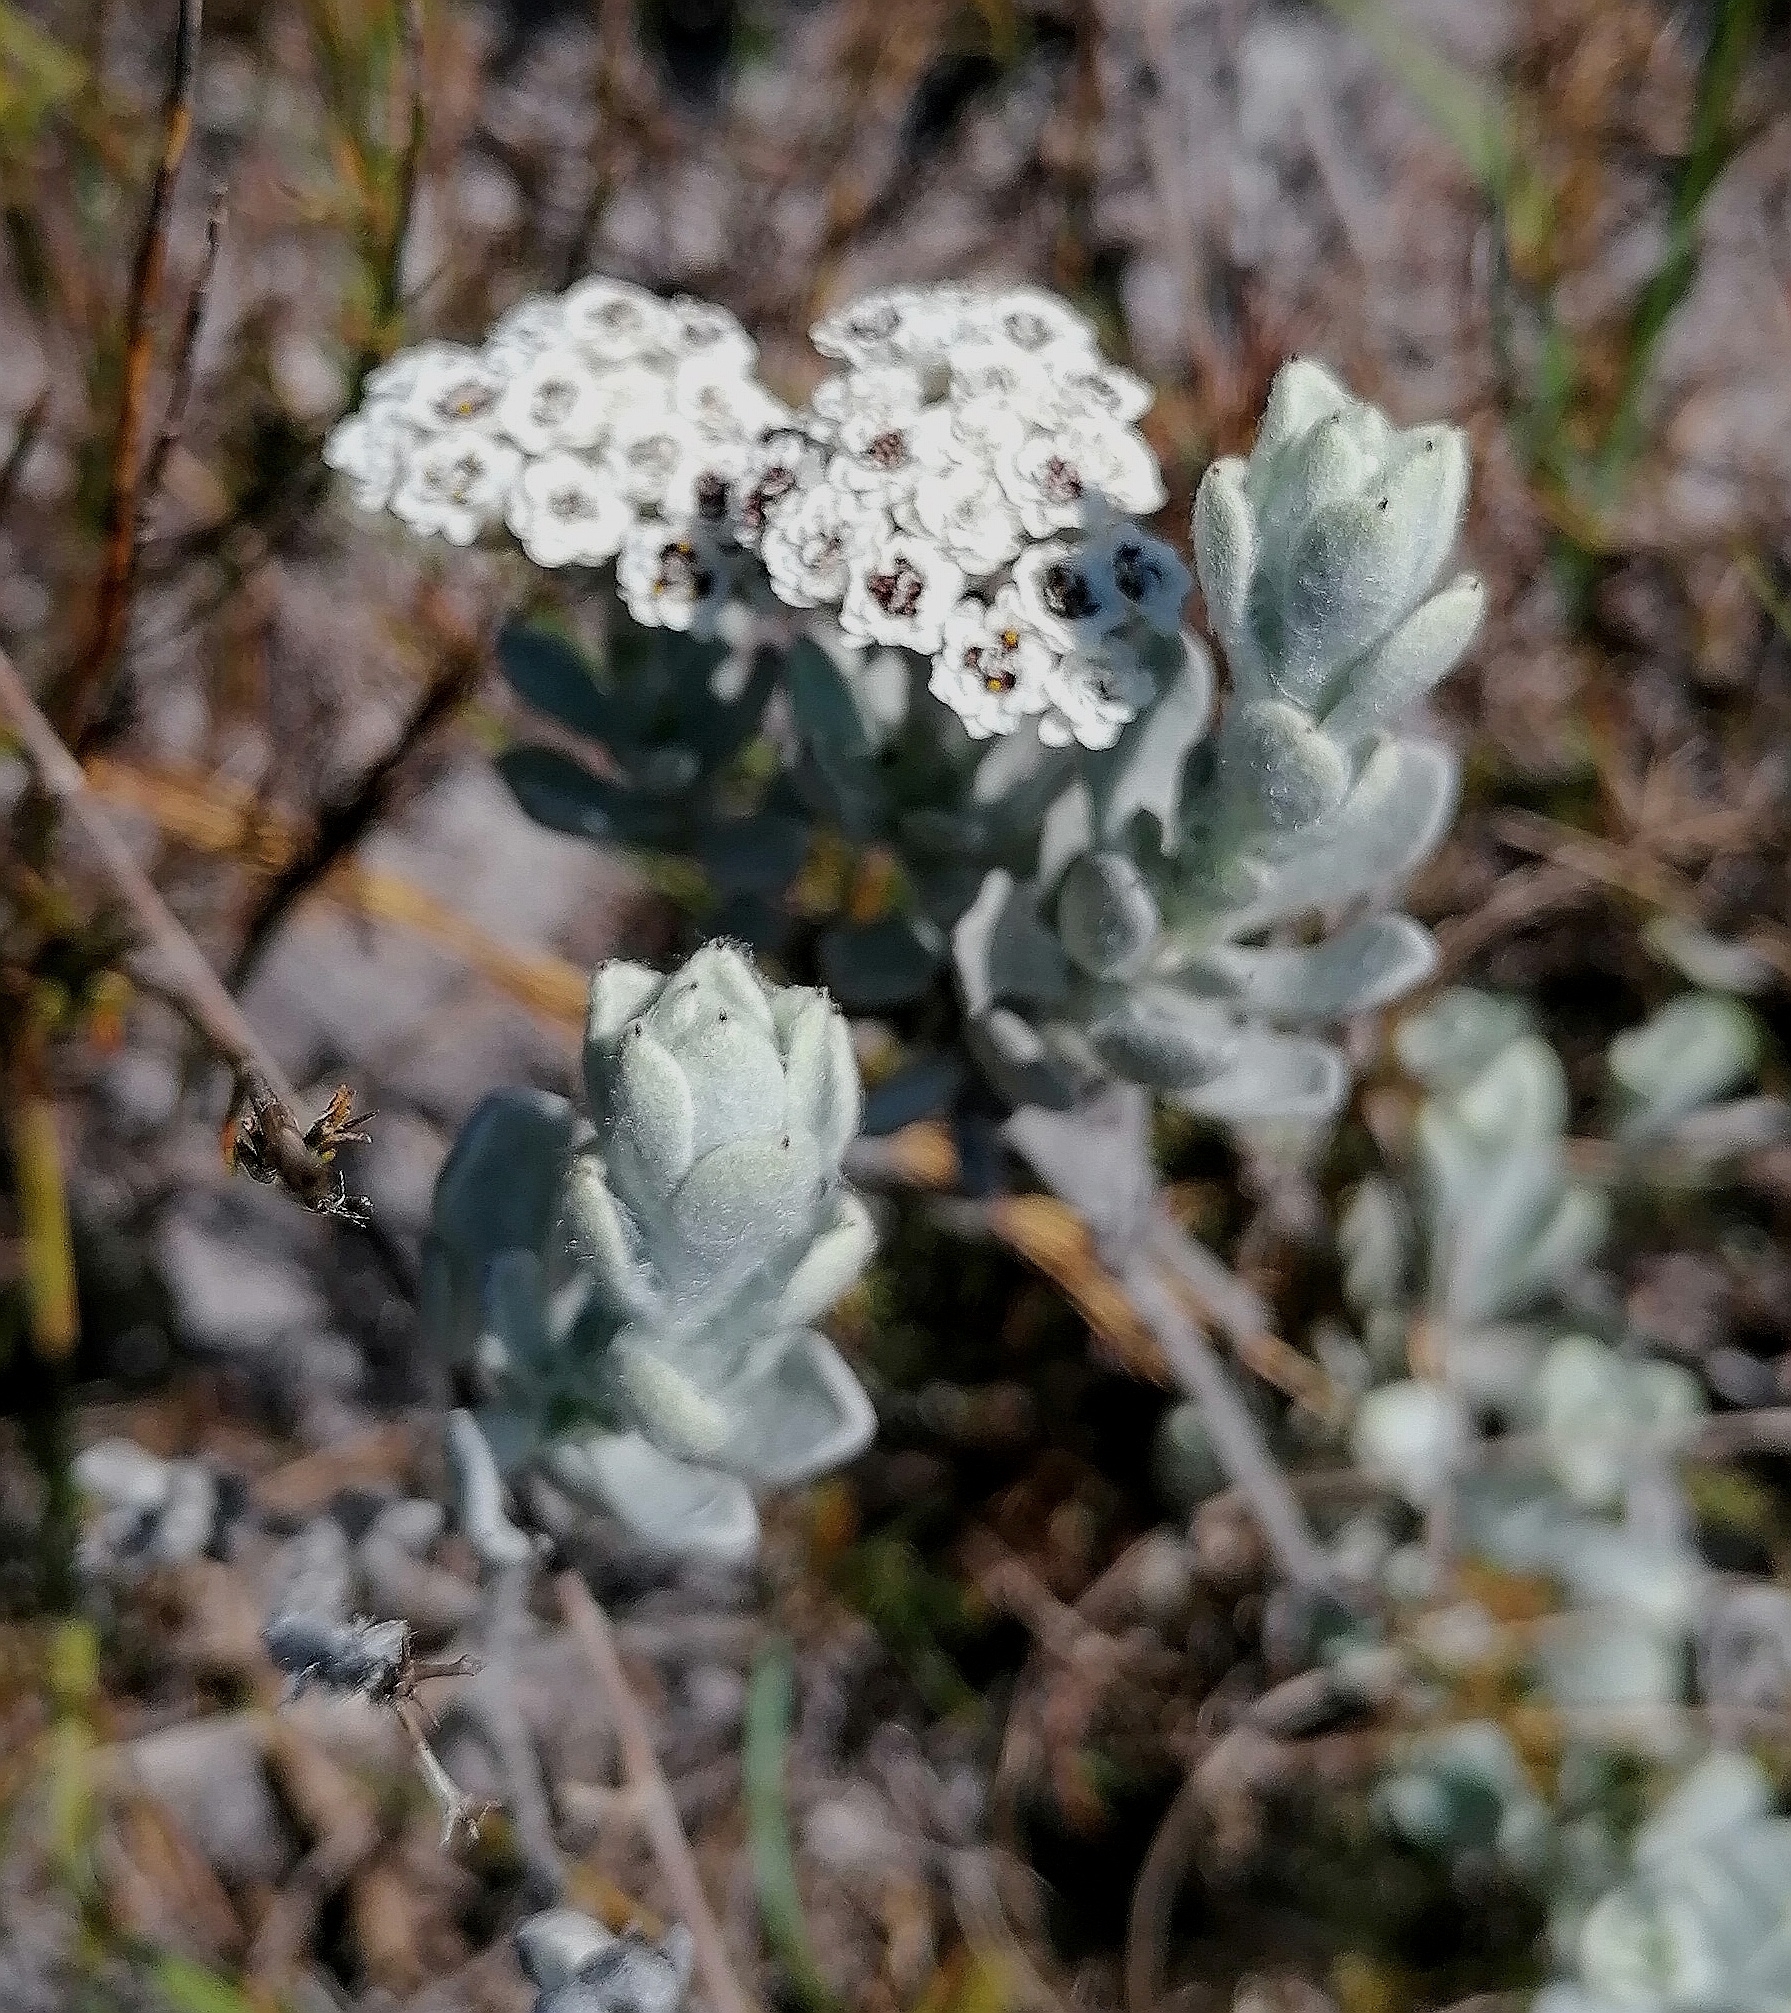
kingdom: Plantae
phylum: Tracheophyta
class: Magnoliopsida
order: Asterales
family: Asteraceae
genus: Petalacte
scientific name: Petalacte coronata
